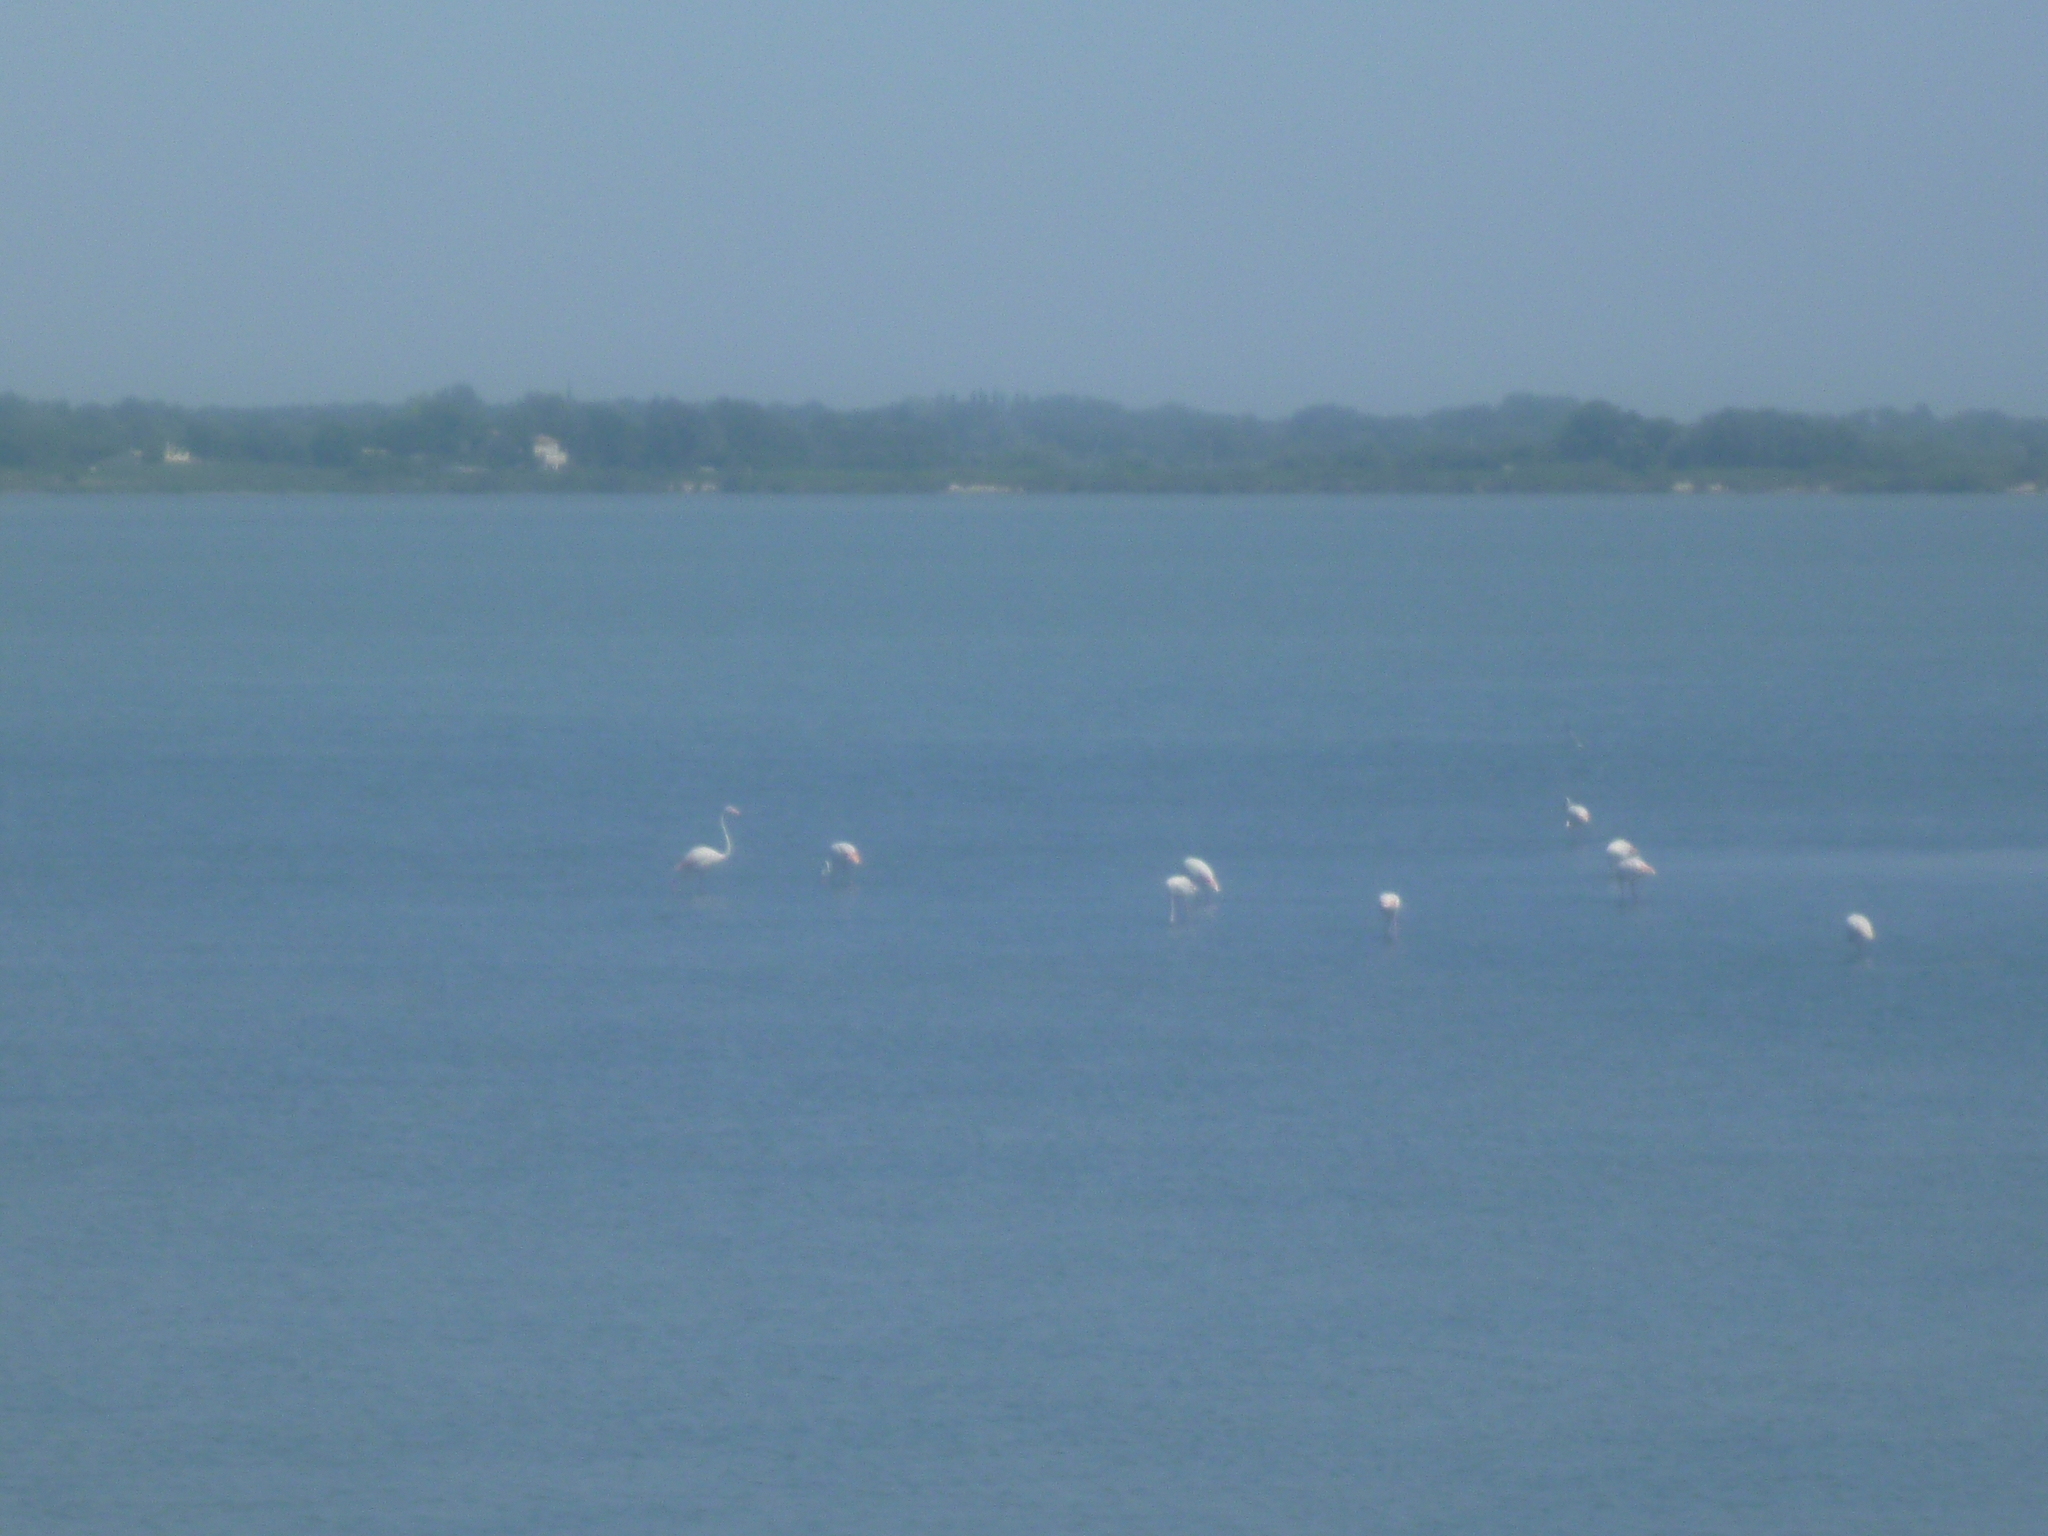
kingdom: Animalia
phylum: Chordata
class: Aves
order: Phoenicopteriformes
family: Phoenicopteridae
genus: Phoenicopterus
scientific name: Phoenicopterus roseus
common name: Greater flamingo
